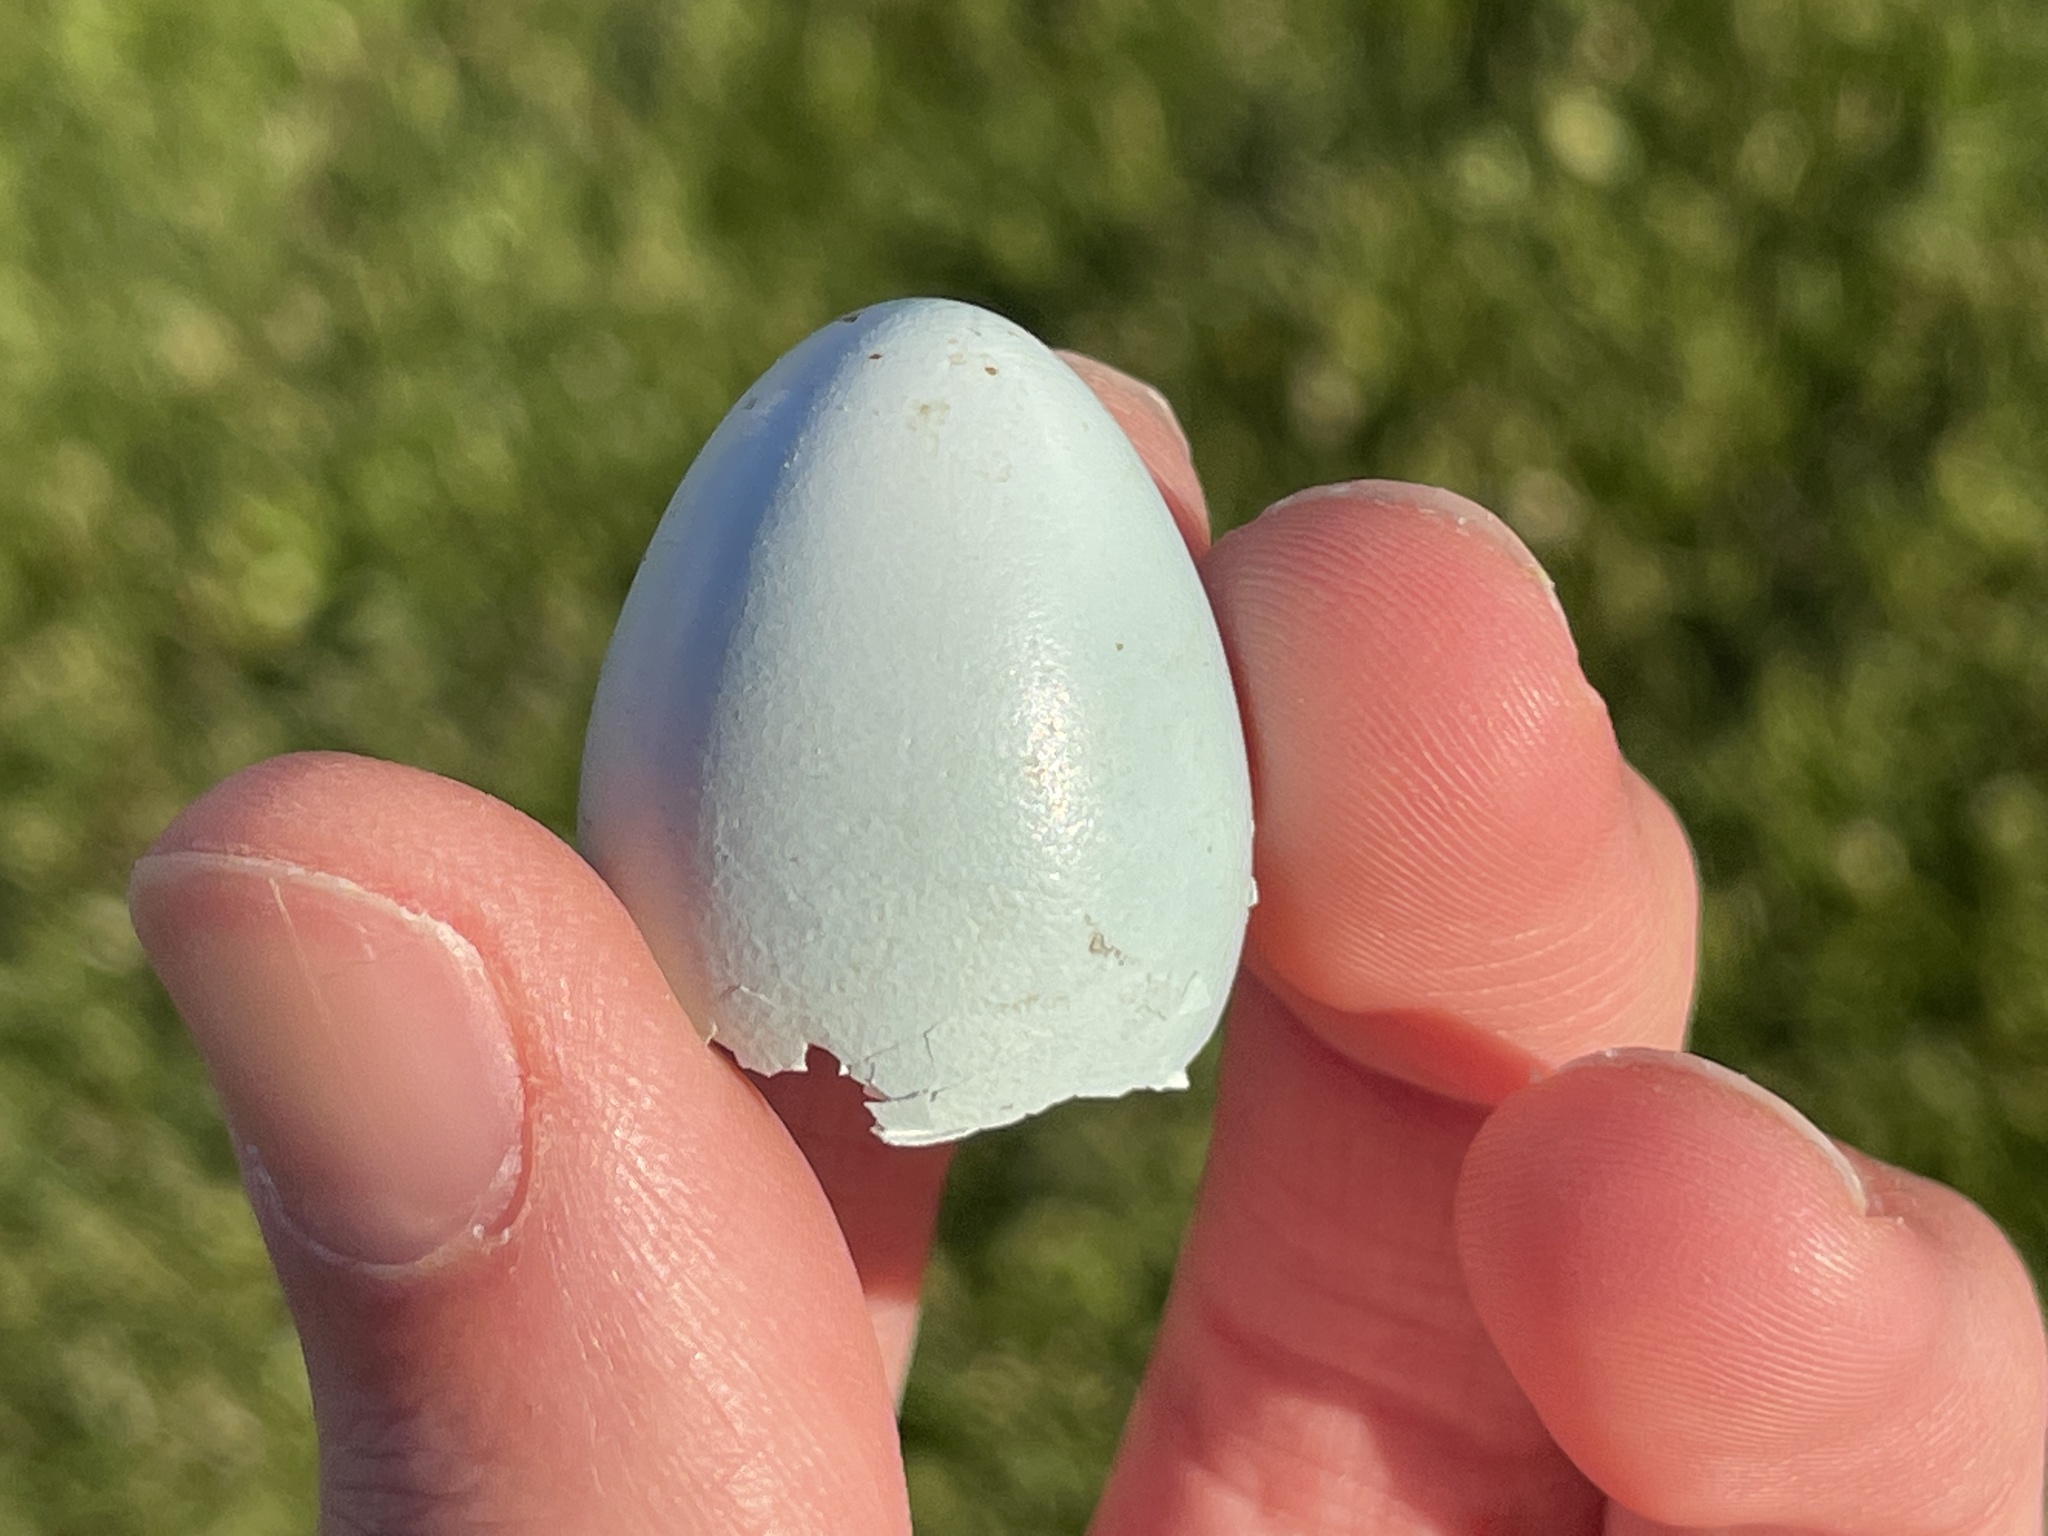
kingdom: Animalia
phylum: Chordata
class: Aves
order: Passeriformes
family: Turdidae
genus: Turdus
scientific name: Turdus migratorius
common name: American robin
